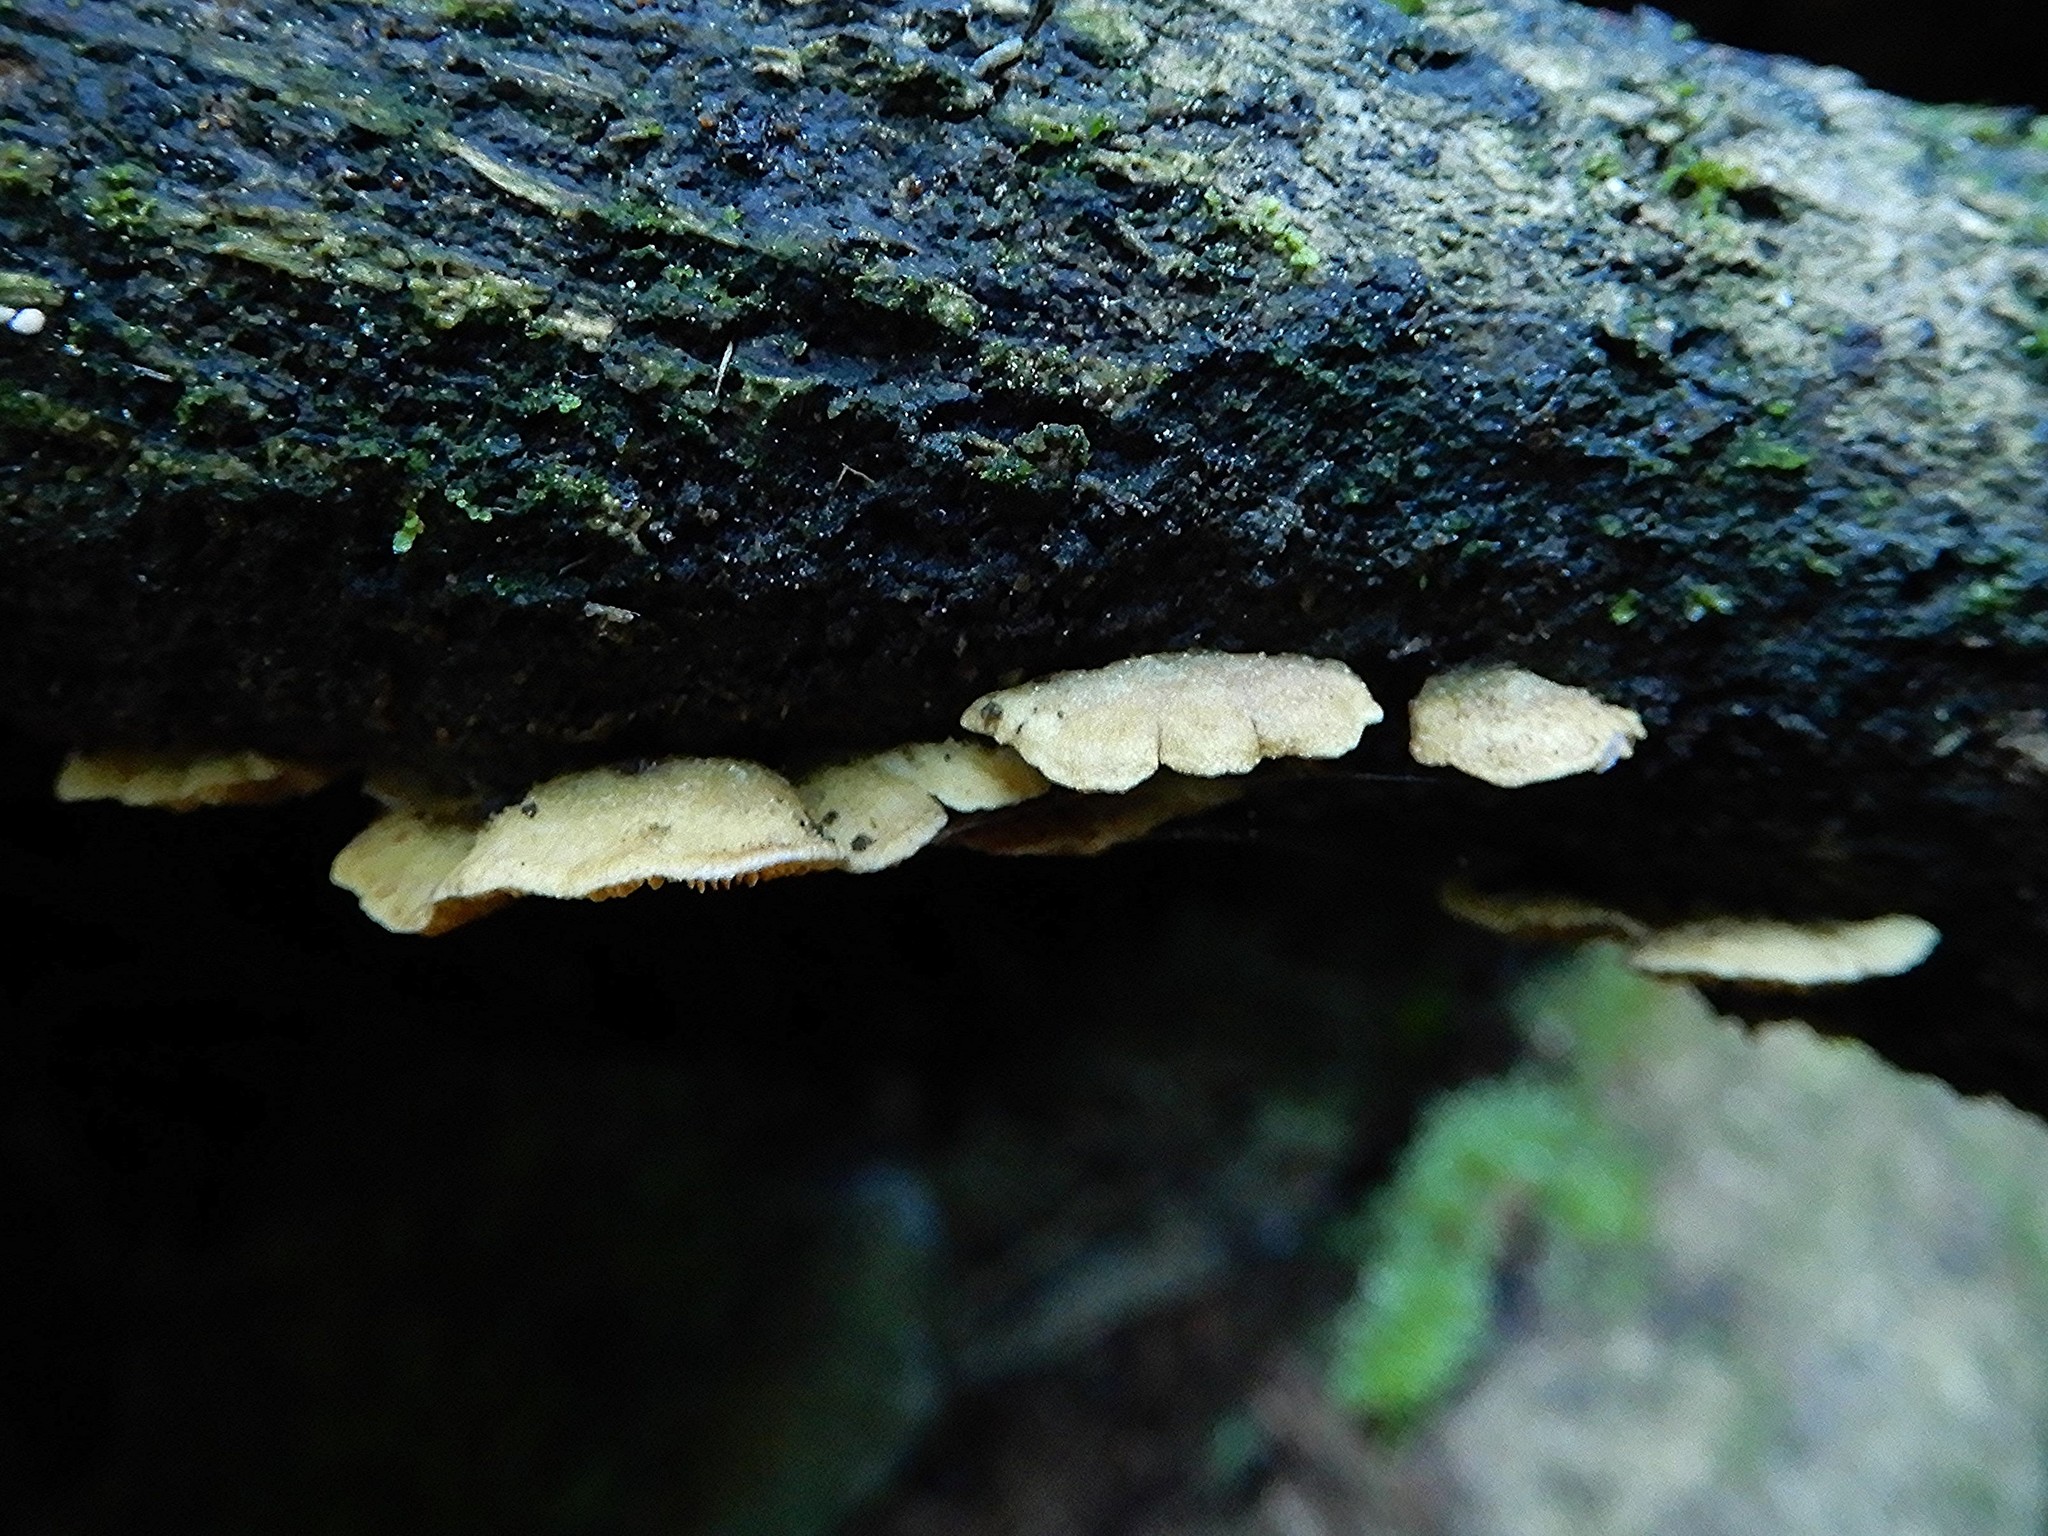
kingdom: Fungi
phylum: Basidiomycota
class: Agaricomycetes
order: Agaricales
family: Crepidotaceae
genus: Crepidotus
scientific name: Crepidotus parietalis
